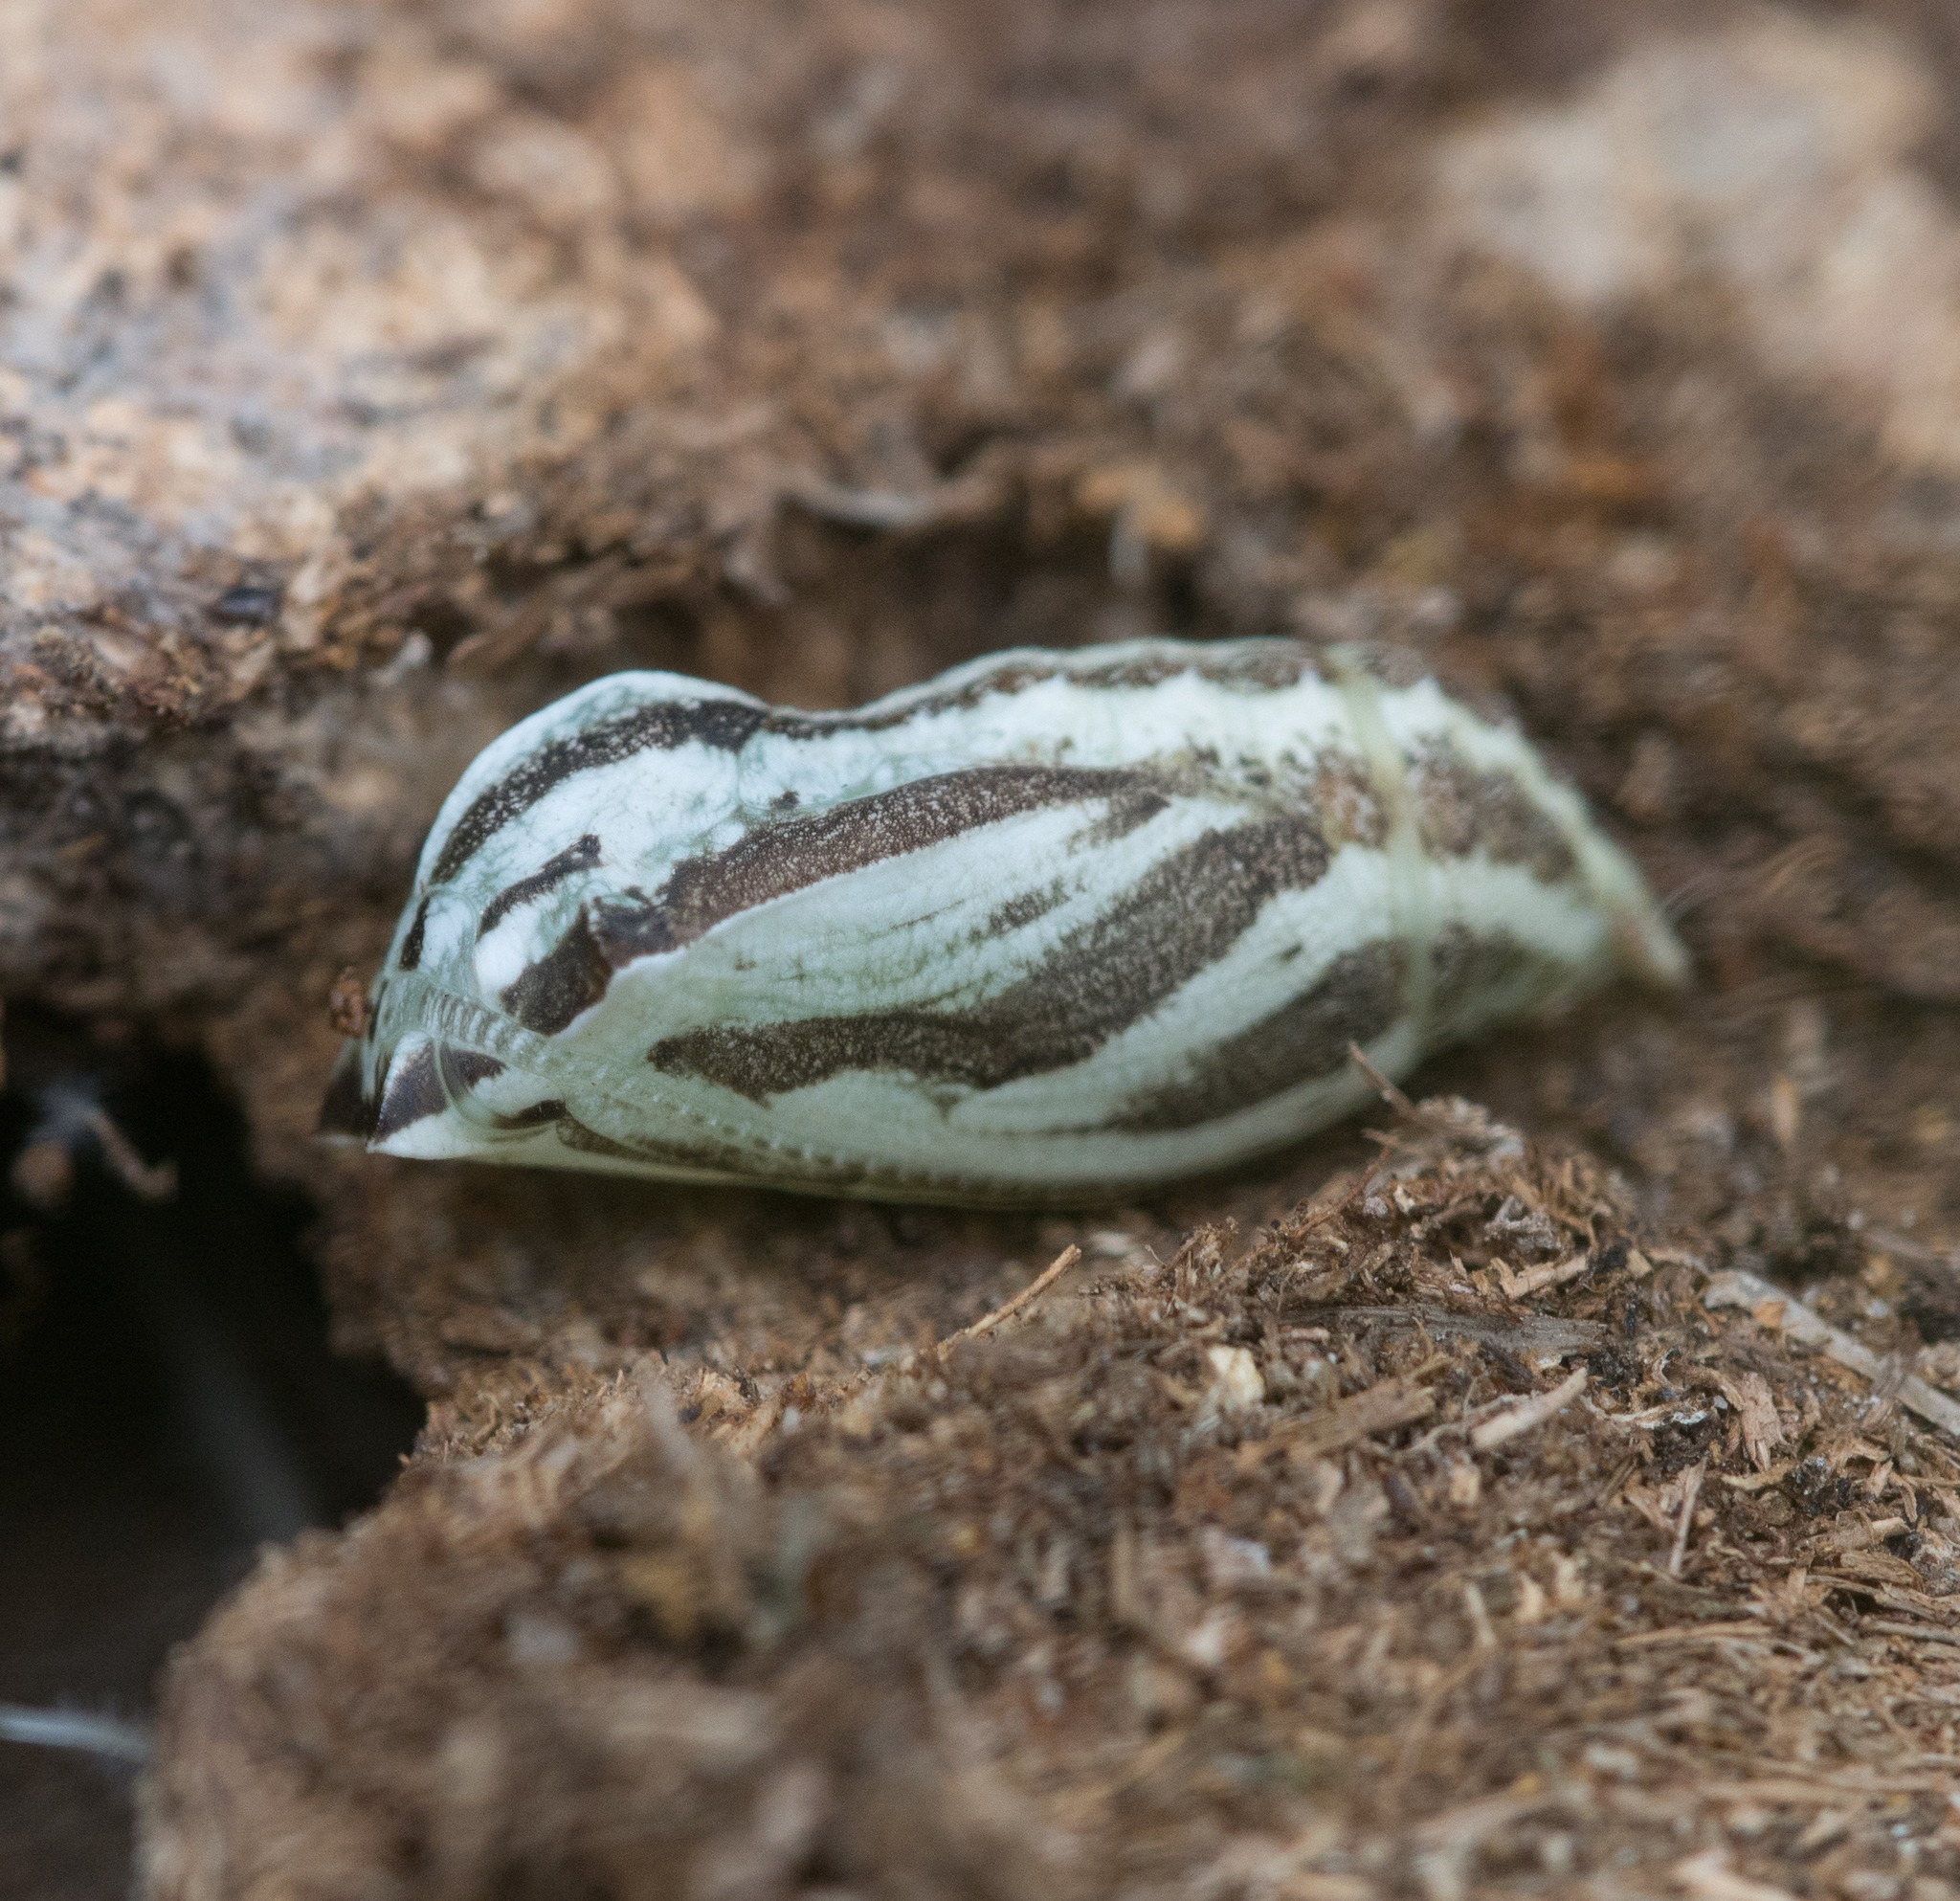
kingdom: Animalia
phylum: Arthropoda
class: Insecta
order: Lepidoptera
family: Nymphalidae
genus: Maniola
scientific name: Maniola jurtina
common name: Meadow brown
